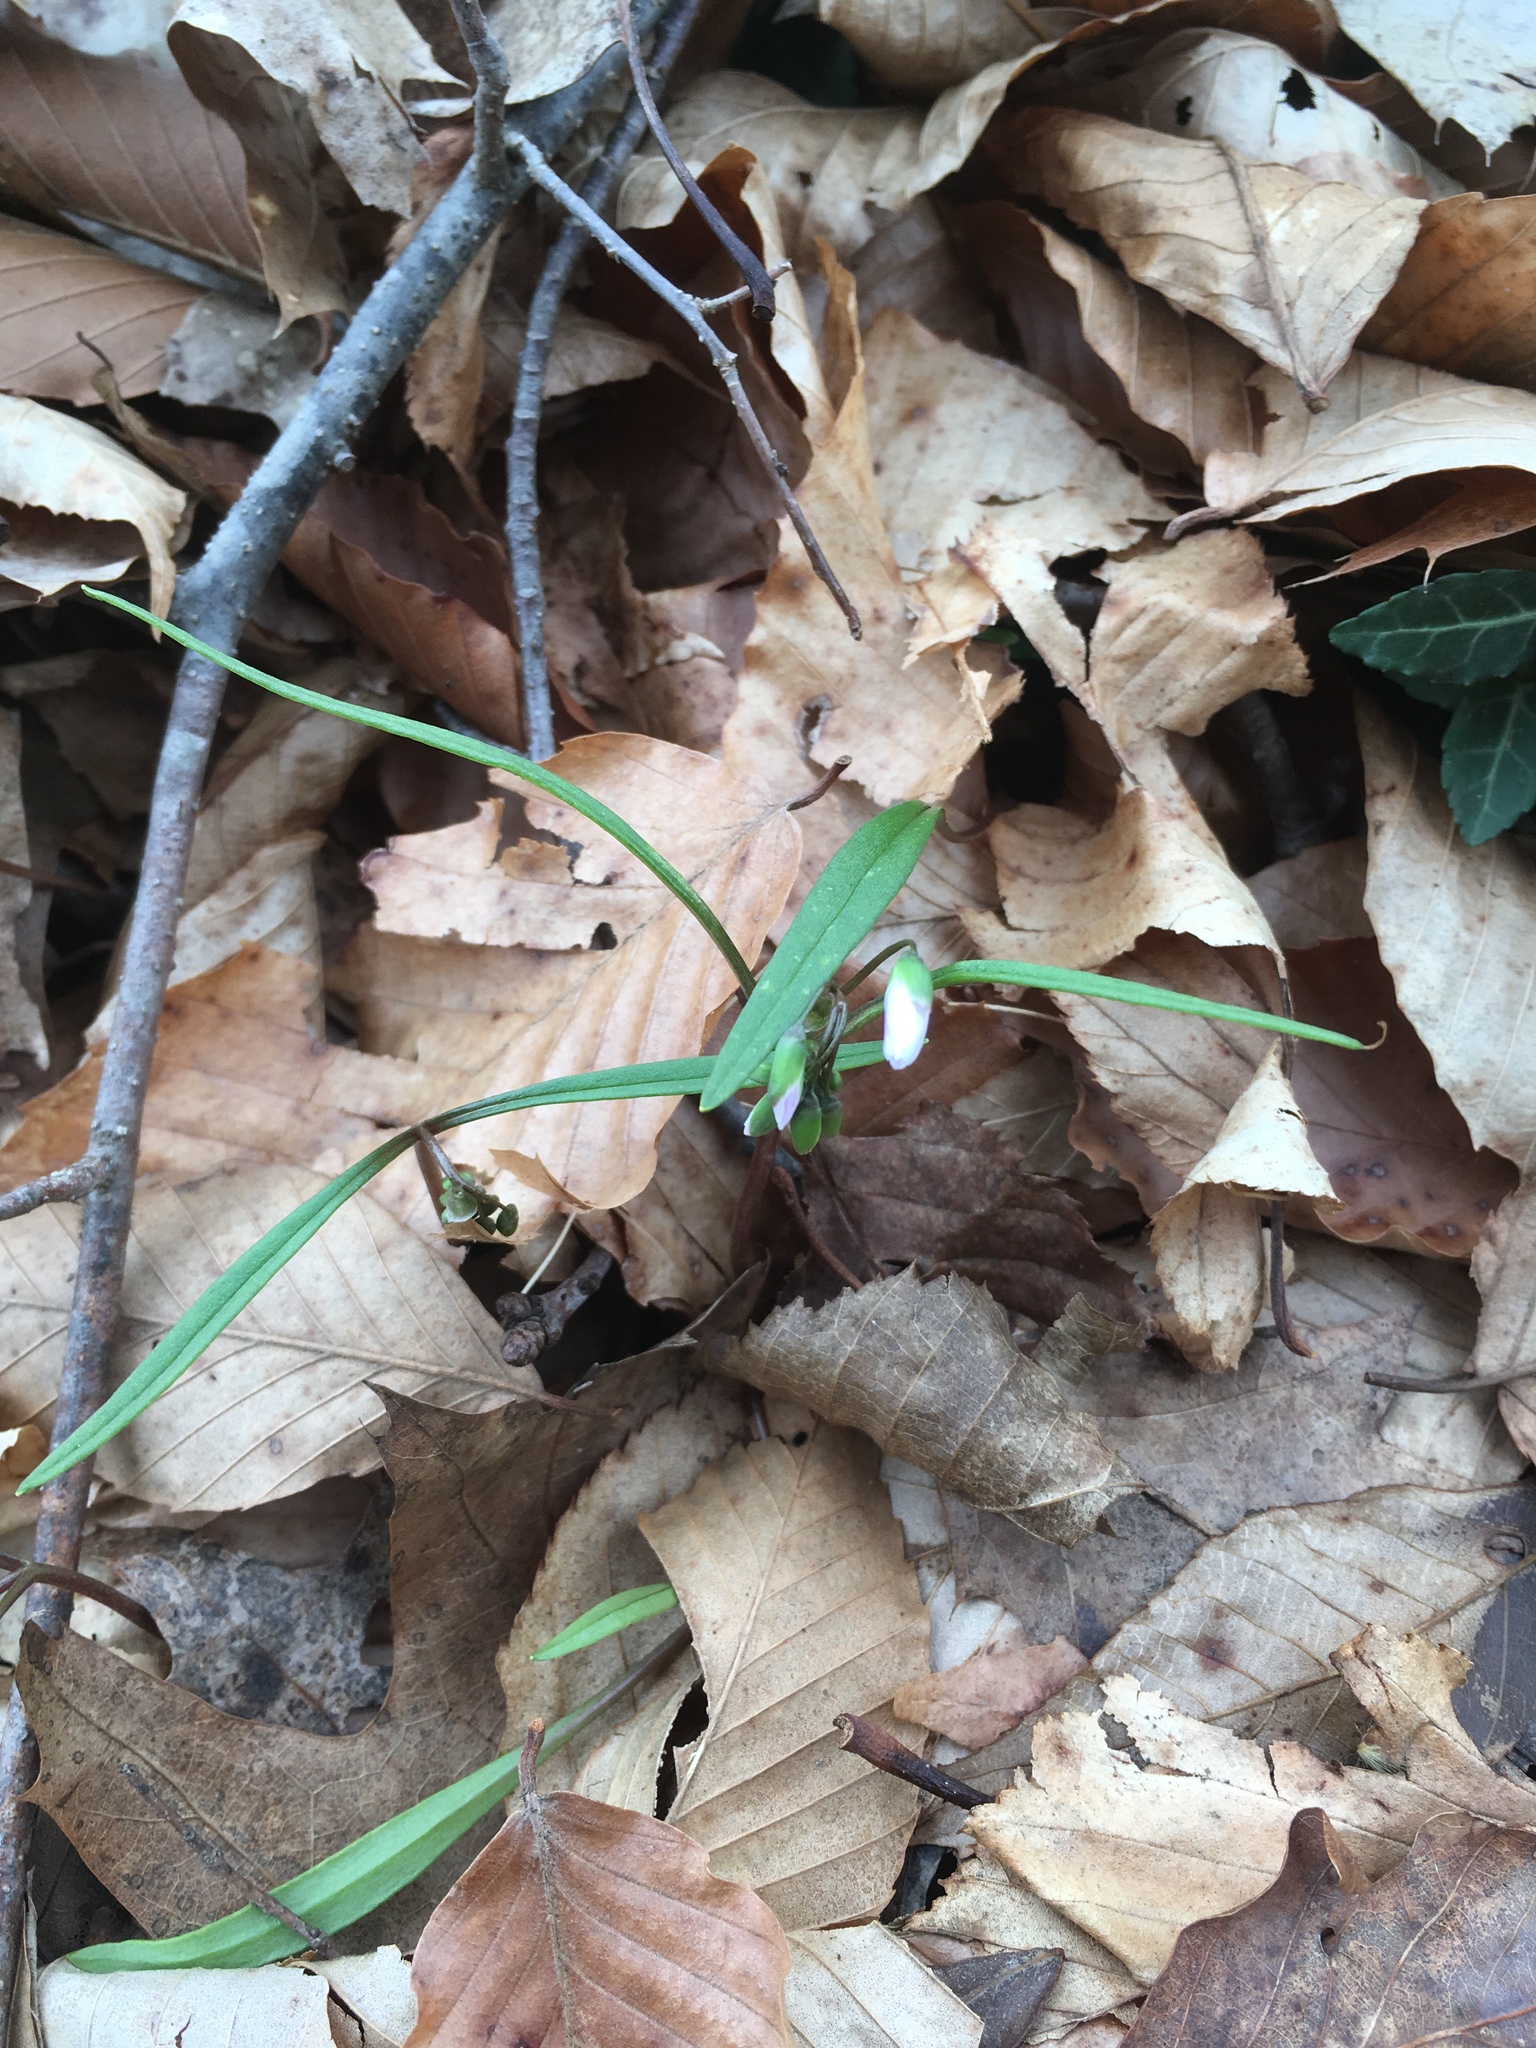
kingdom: Plantae
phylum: Tracheophyta
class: Magnoliopsida
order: Caryophyllales
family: Montiaceae
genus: Claytonia
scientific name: Claytonia virginica
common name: Virginia springbeauty
